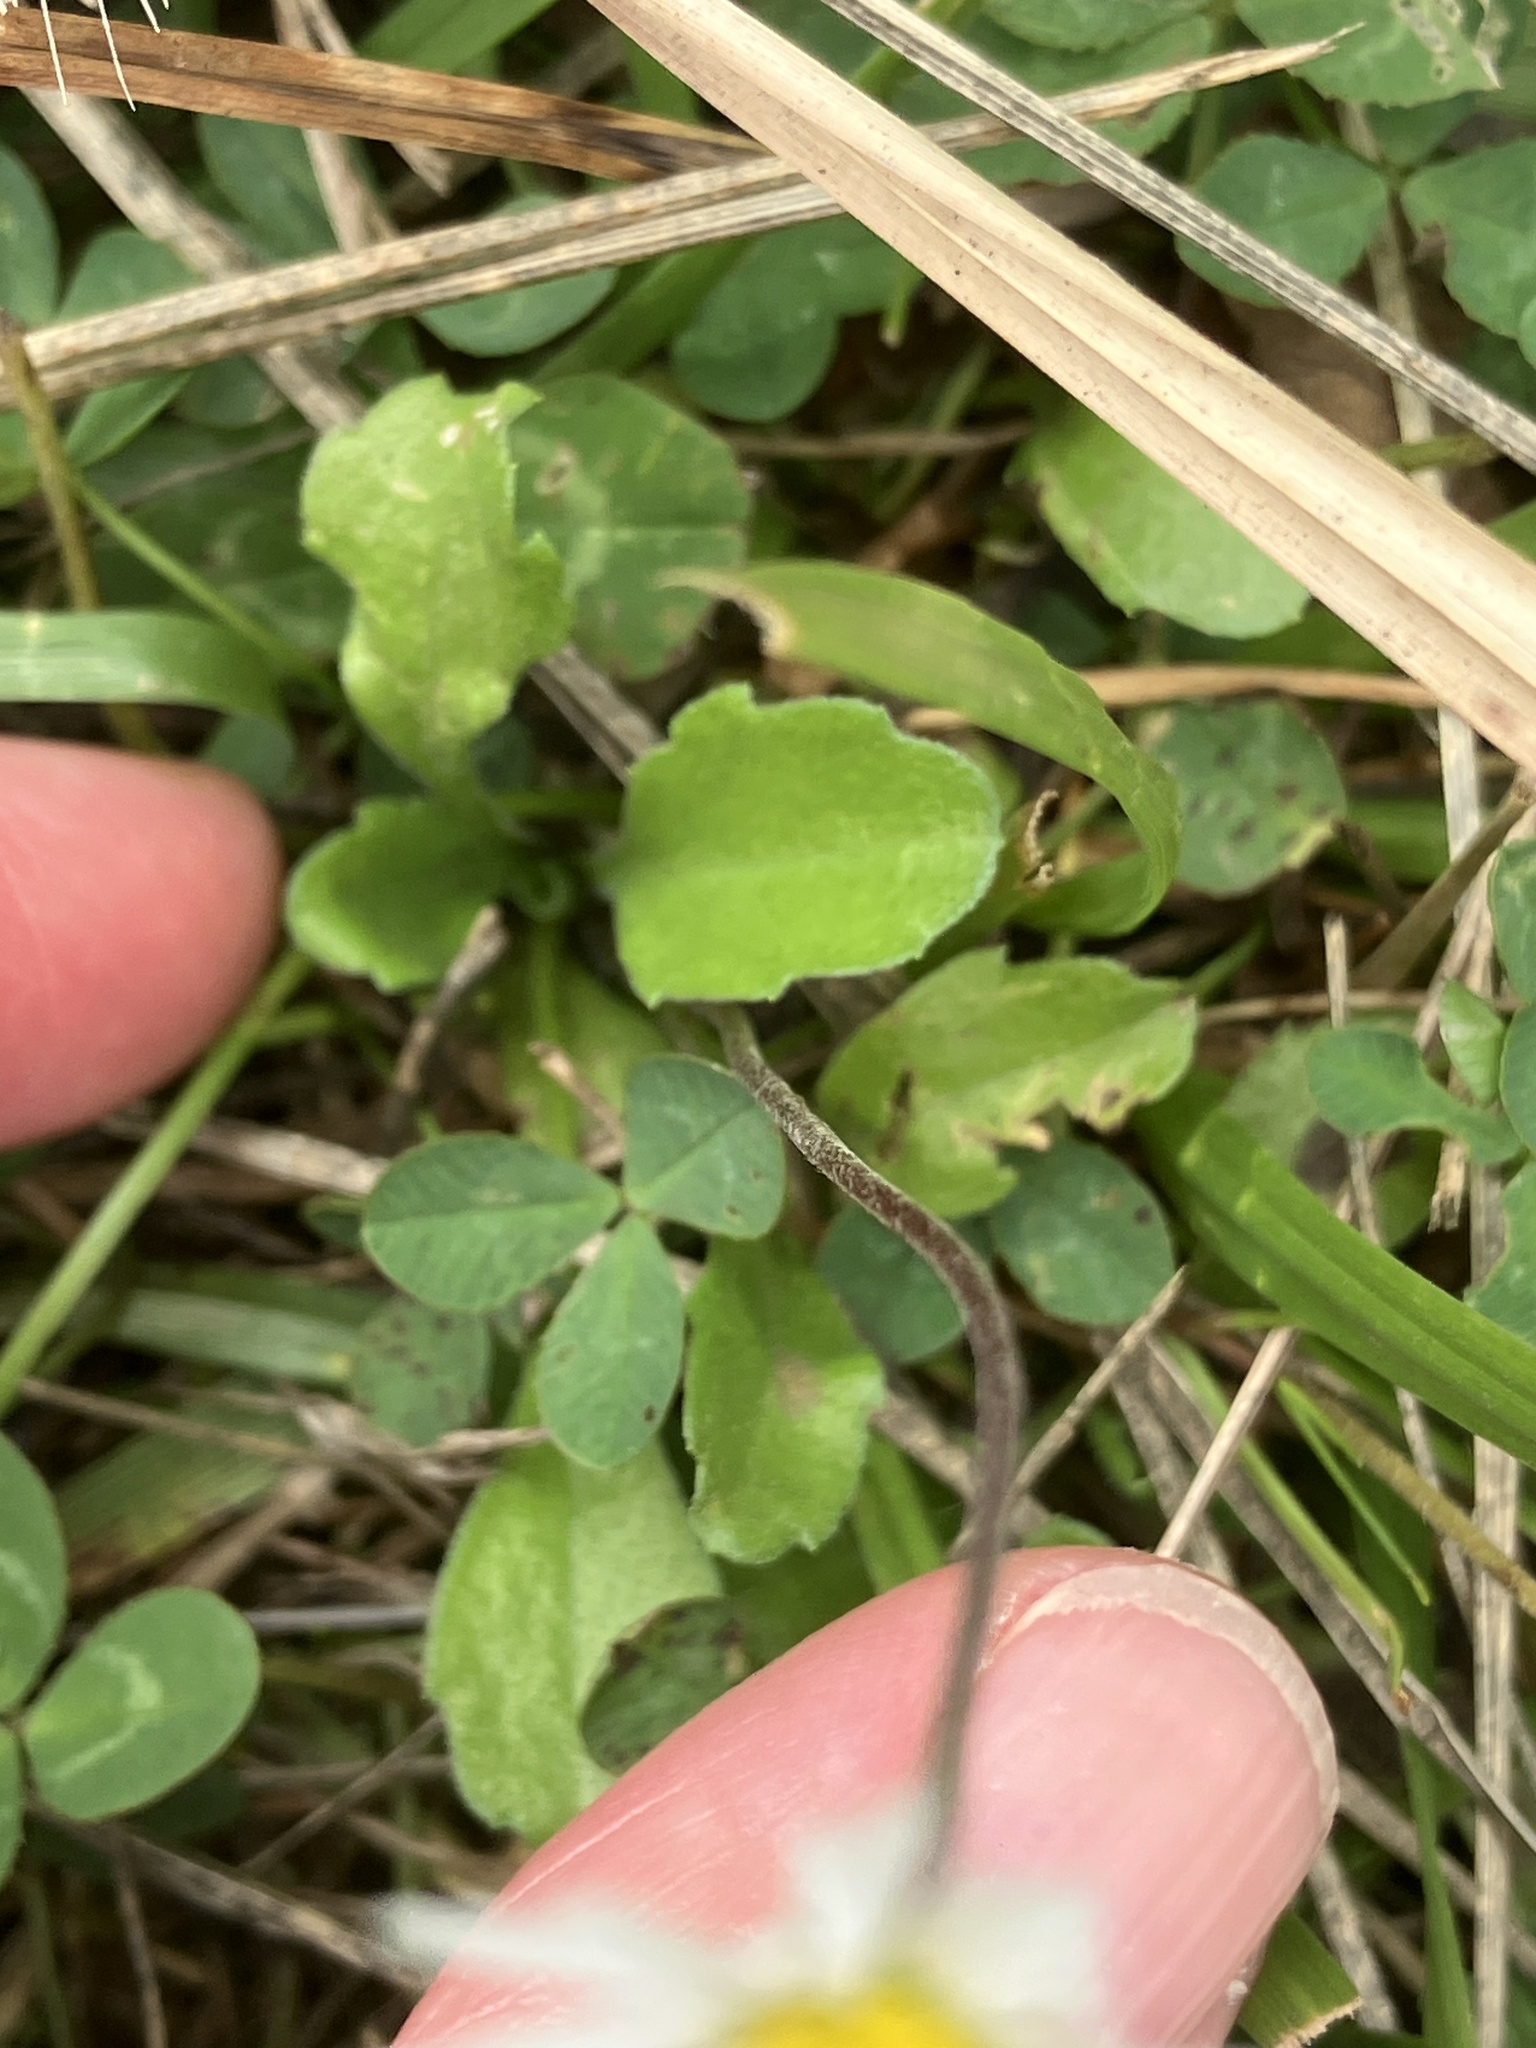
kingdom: Plantae
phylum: Tracheophyta
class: Magnoliopsida
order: Asterales
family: Asteraceae
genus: Bellis
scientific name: Bellis perennis
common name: Lawndaisy
